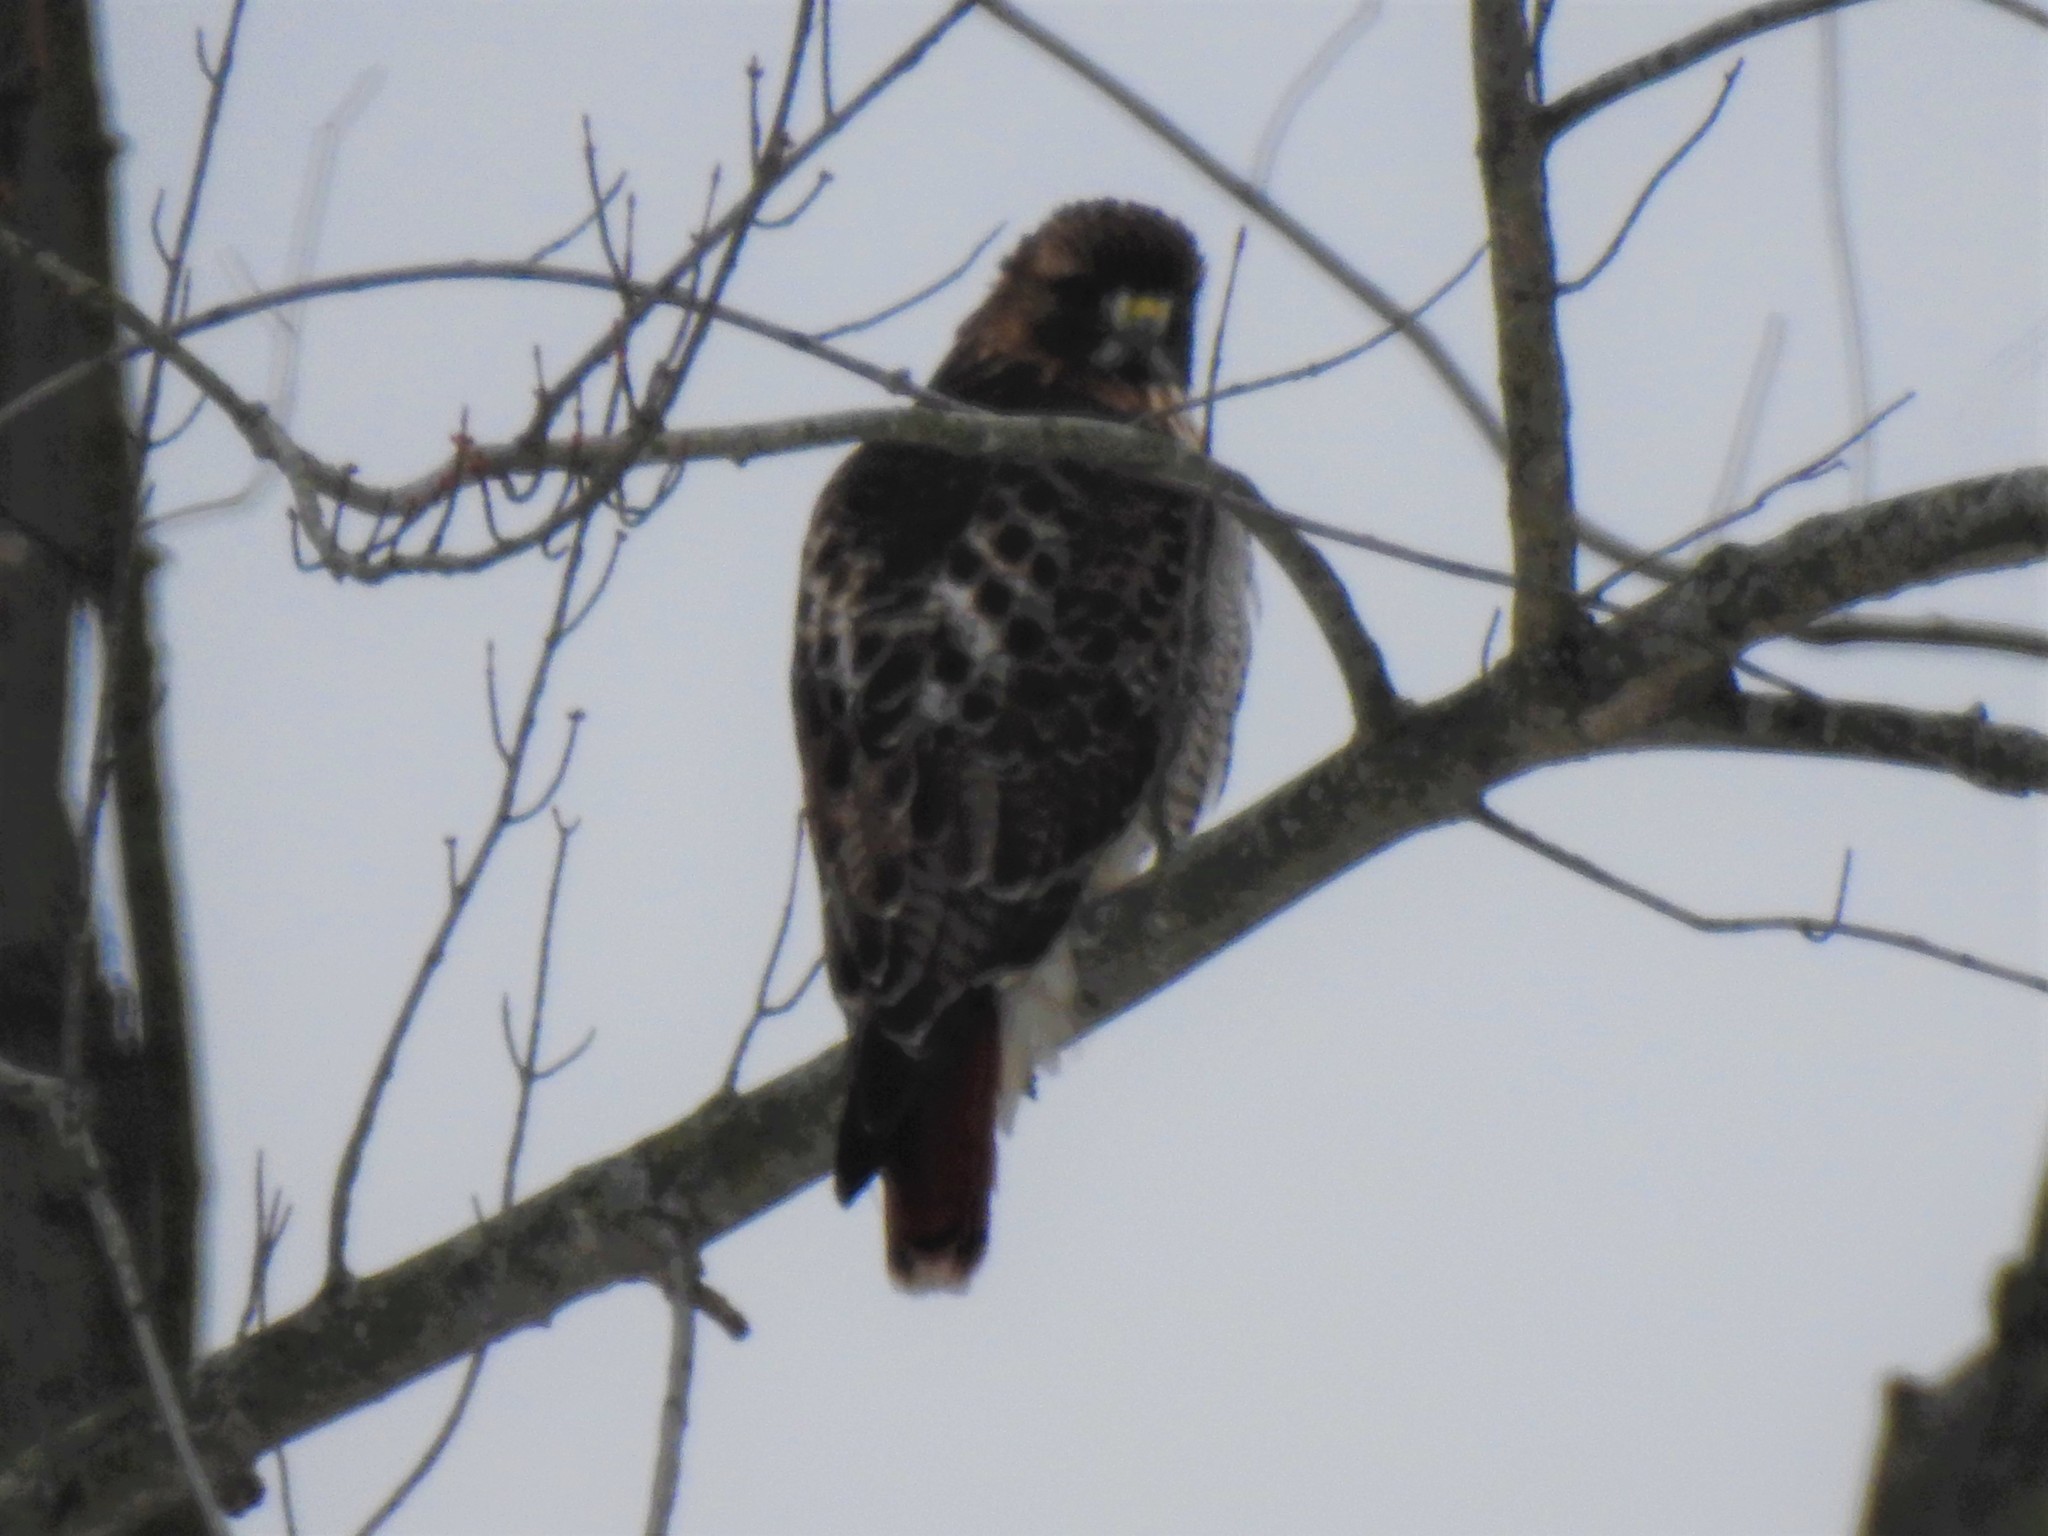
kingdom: Animalia
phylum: Chordata
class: Aves
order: Accipitriformes
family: Accipitridae
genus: Buteo
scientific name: Buteo jamaicensis
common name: Red-tailed hawk
